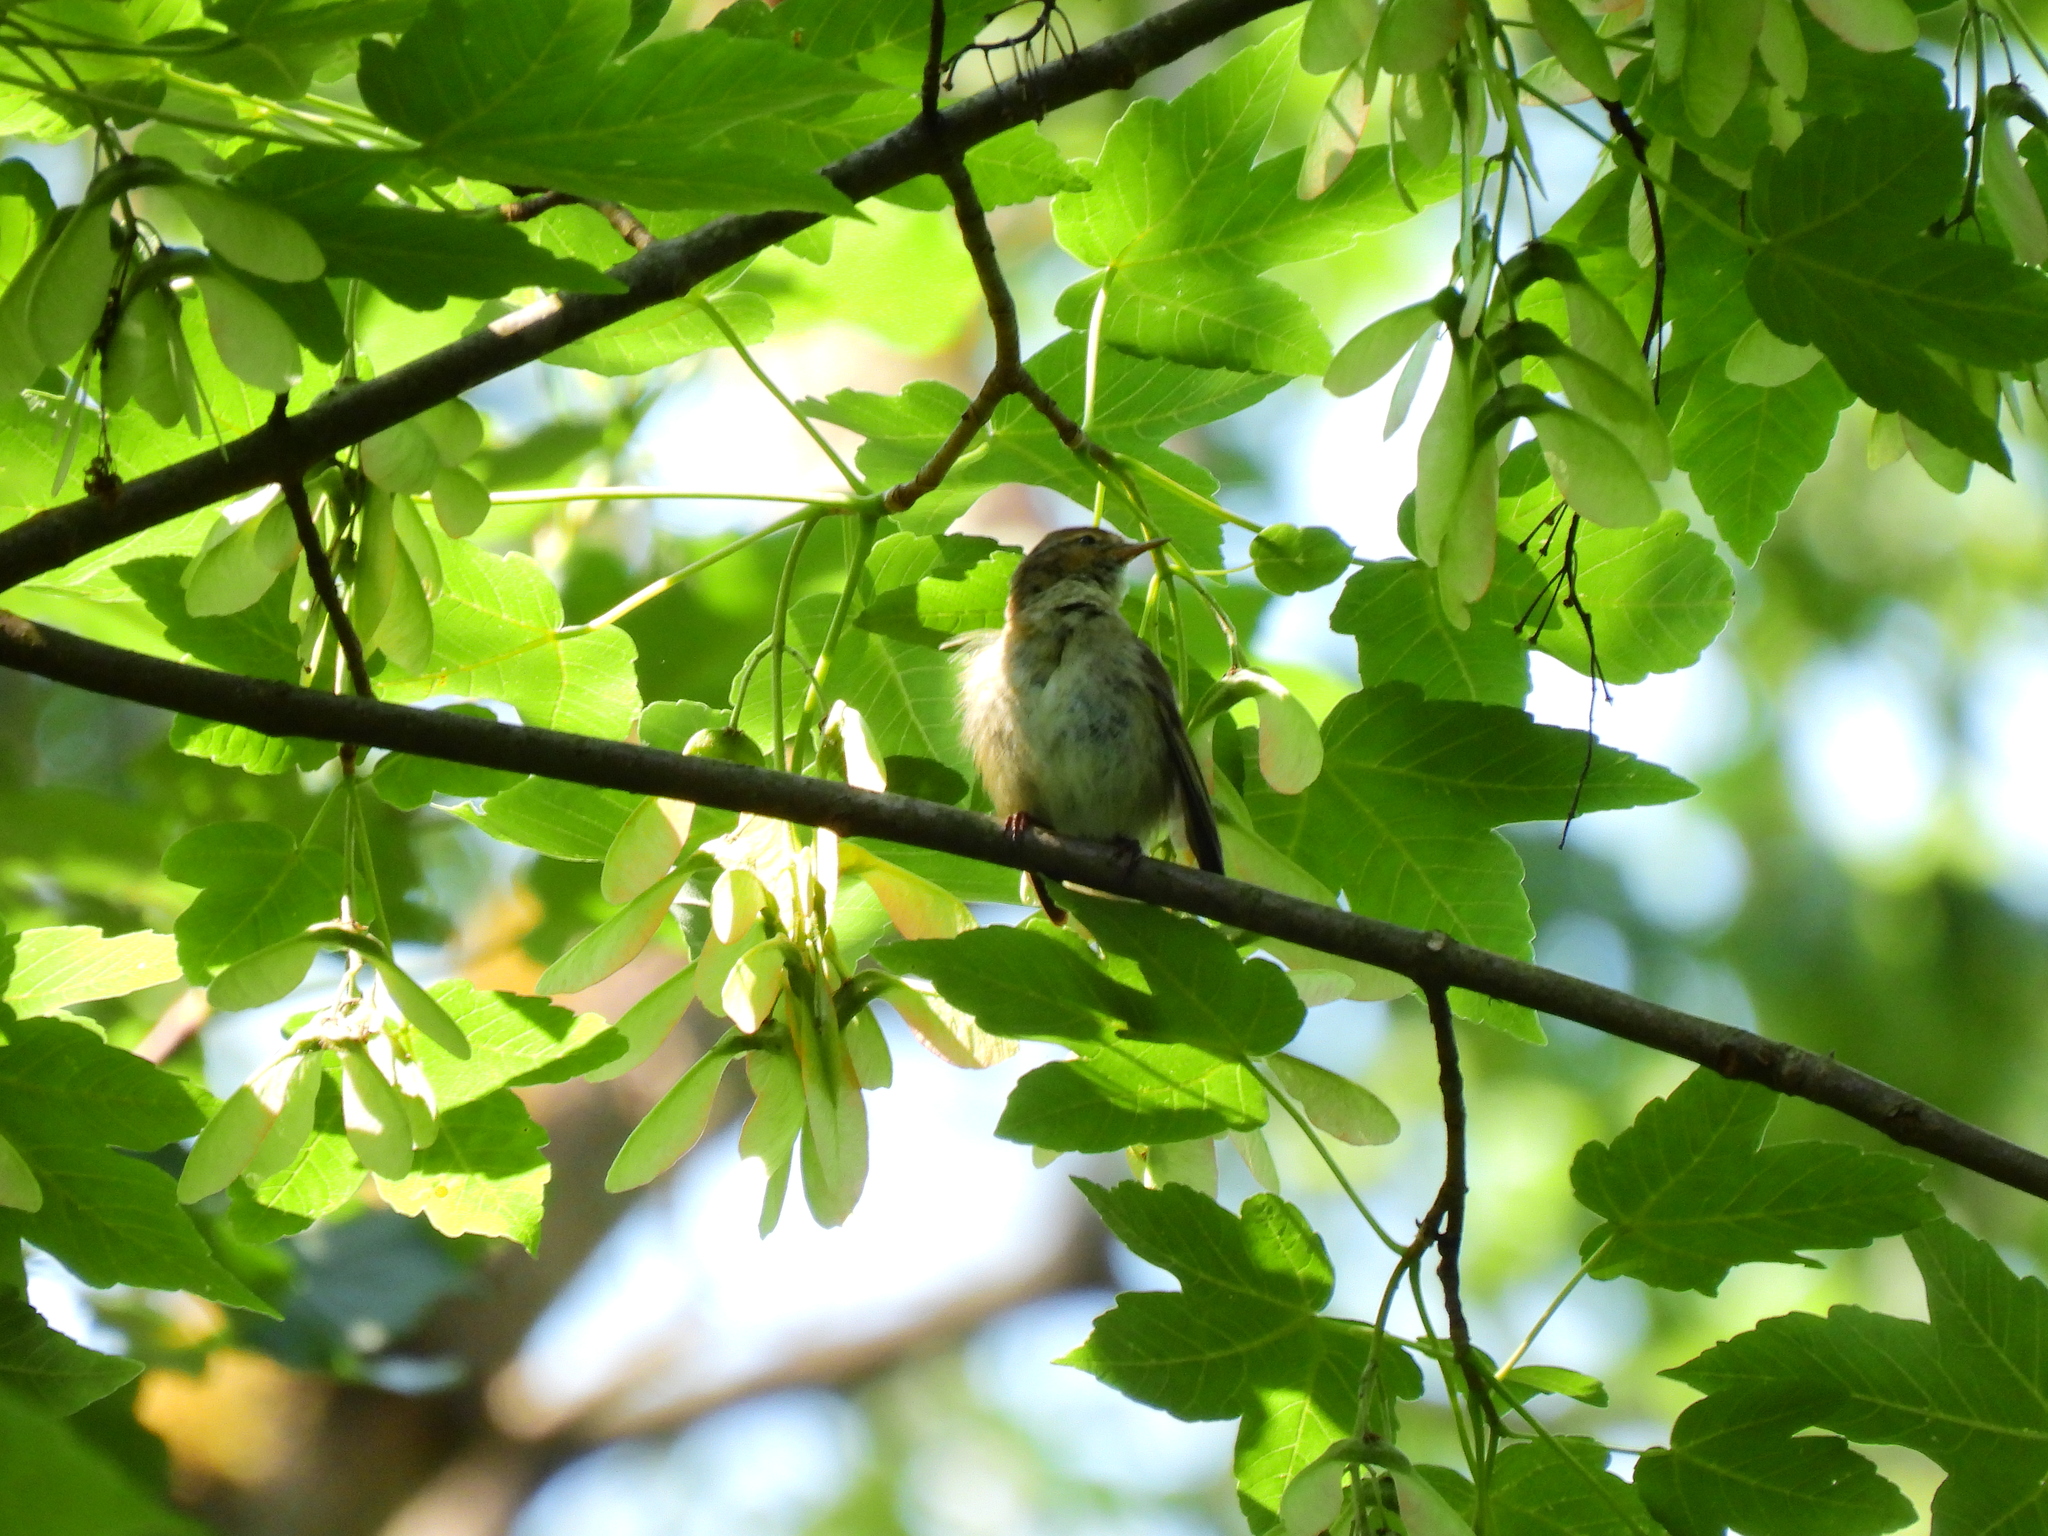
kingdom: Animalia
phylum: Chordata
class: Aves
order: Passeriformes
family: Phylloscopidae
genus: Phylloscopus
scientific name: Phylloscopus collybita
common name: Common chiffchaff
